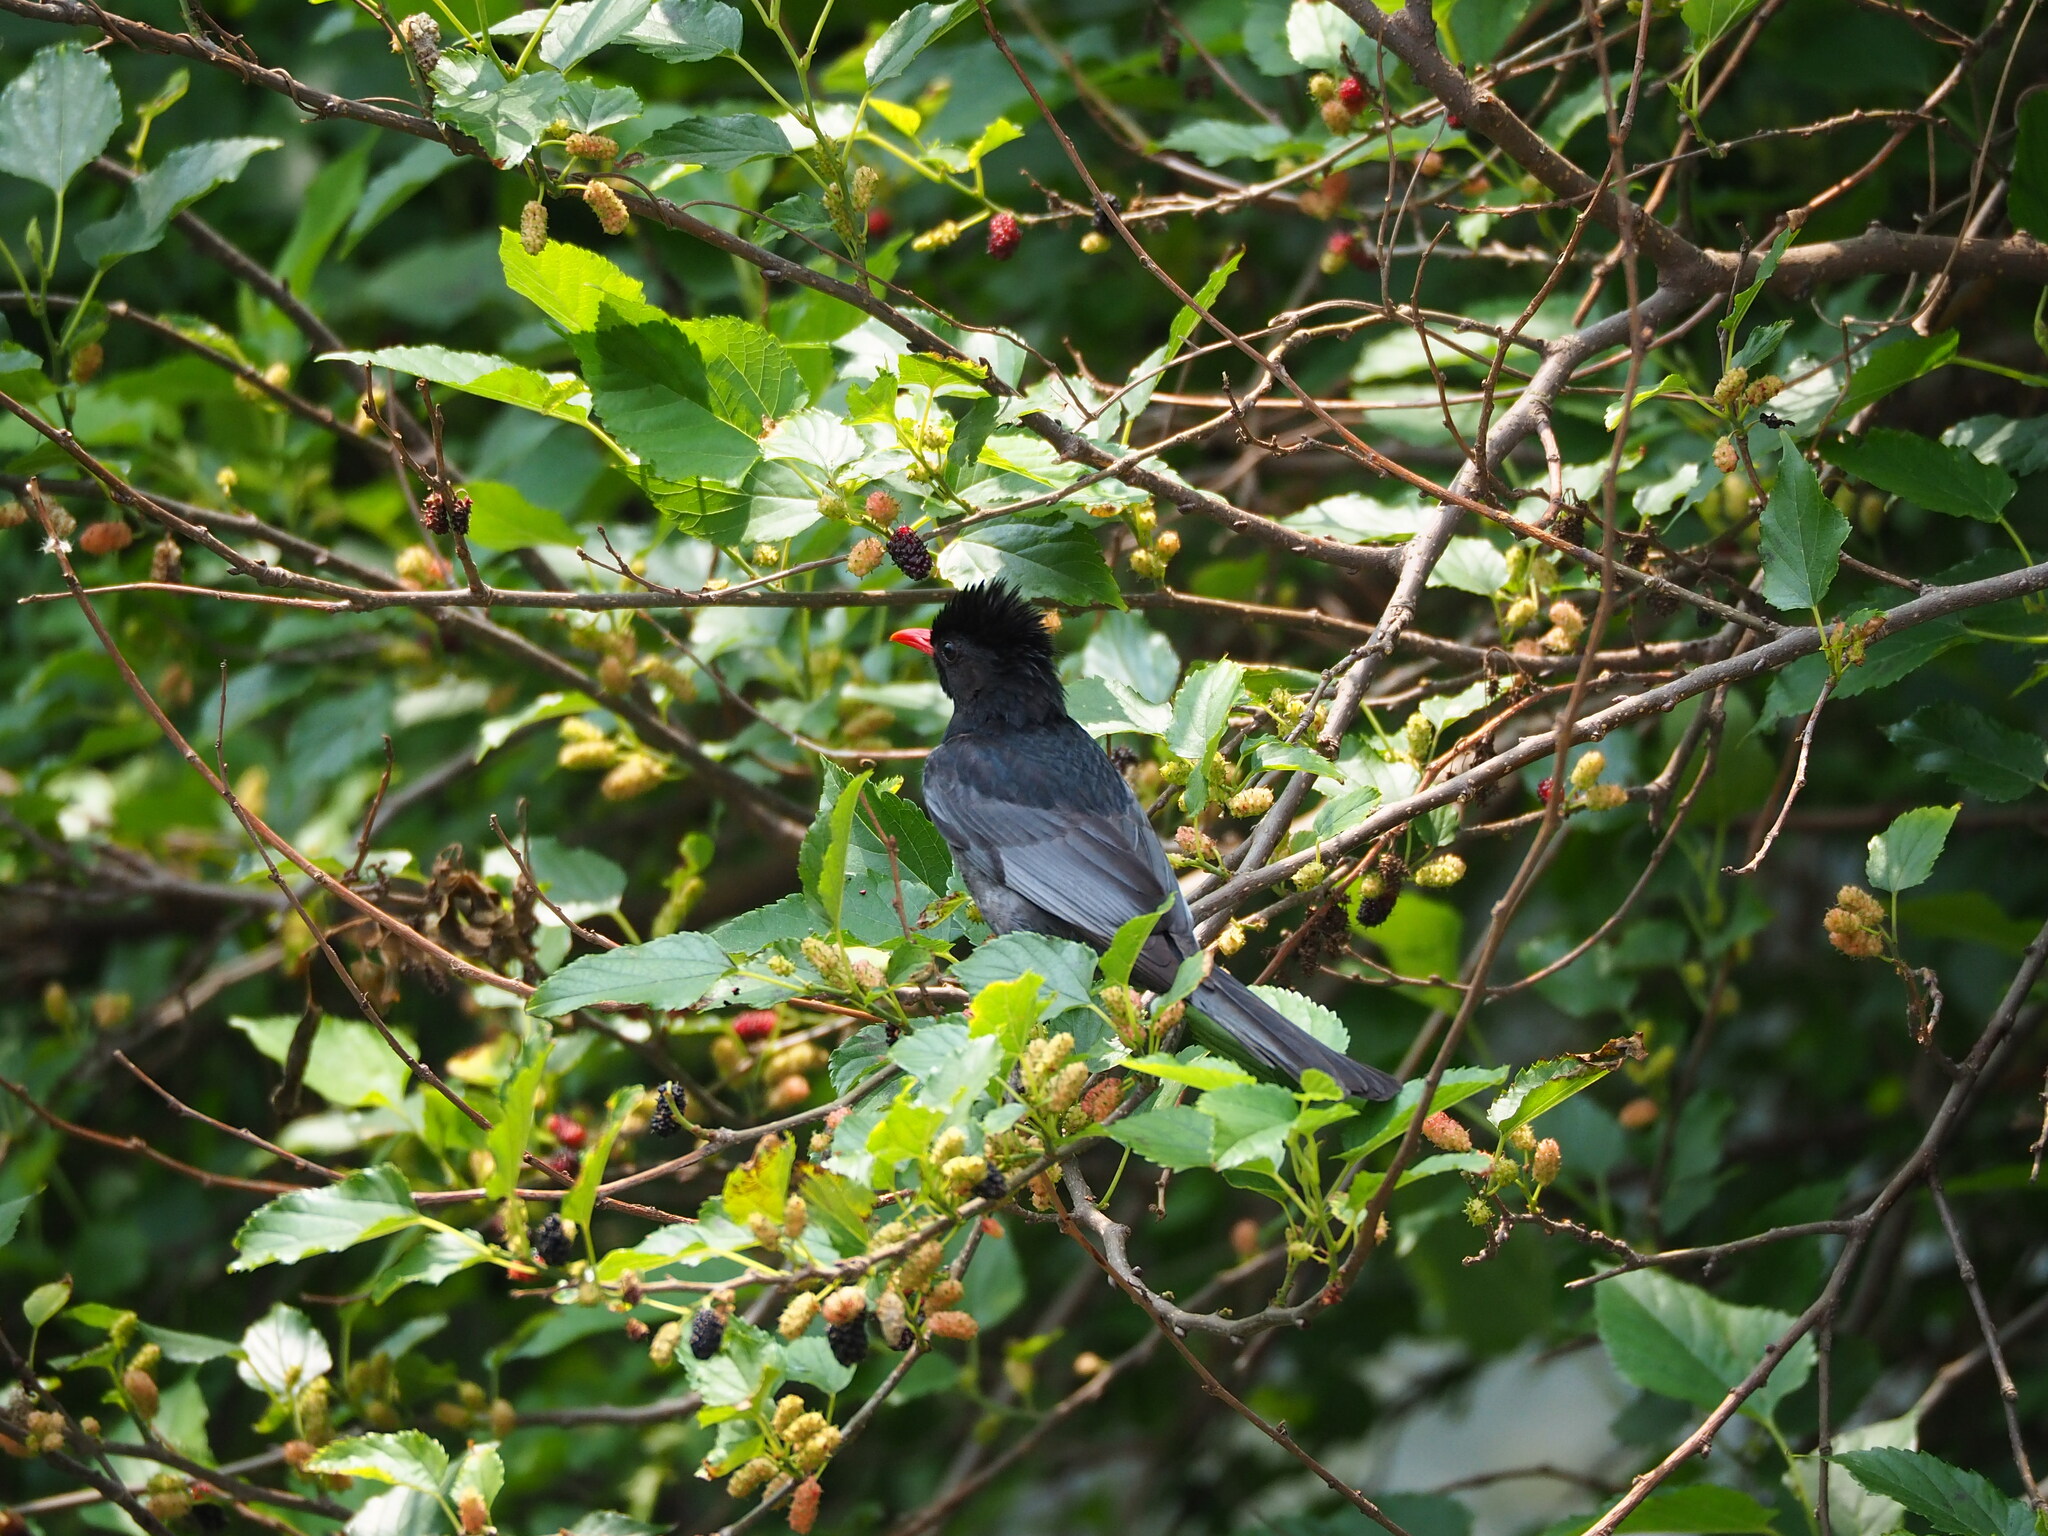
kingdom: Animalia
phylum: Chordata
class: Aves
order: Passeriformes
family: Pycnonotidae
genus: Hypsipetes
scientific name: Hypsipetes leucocephalus
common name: Black bulbul
